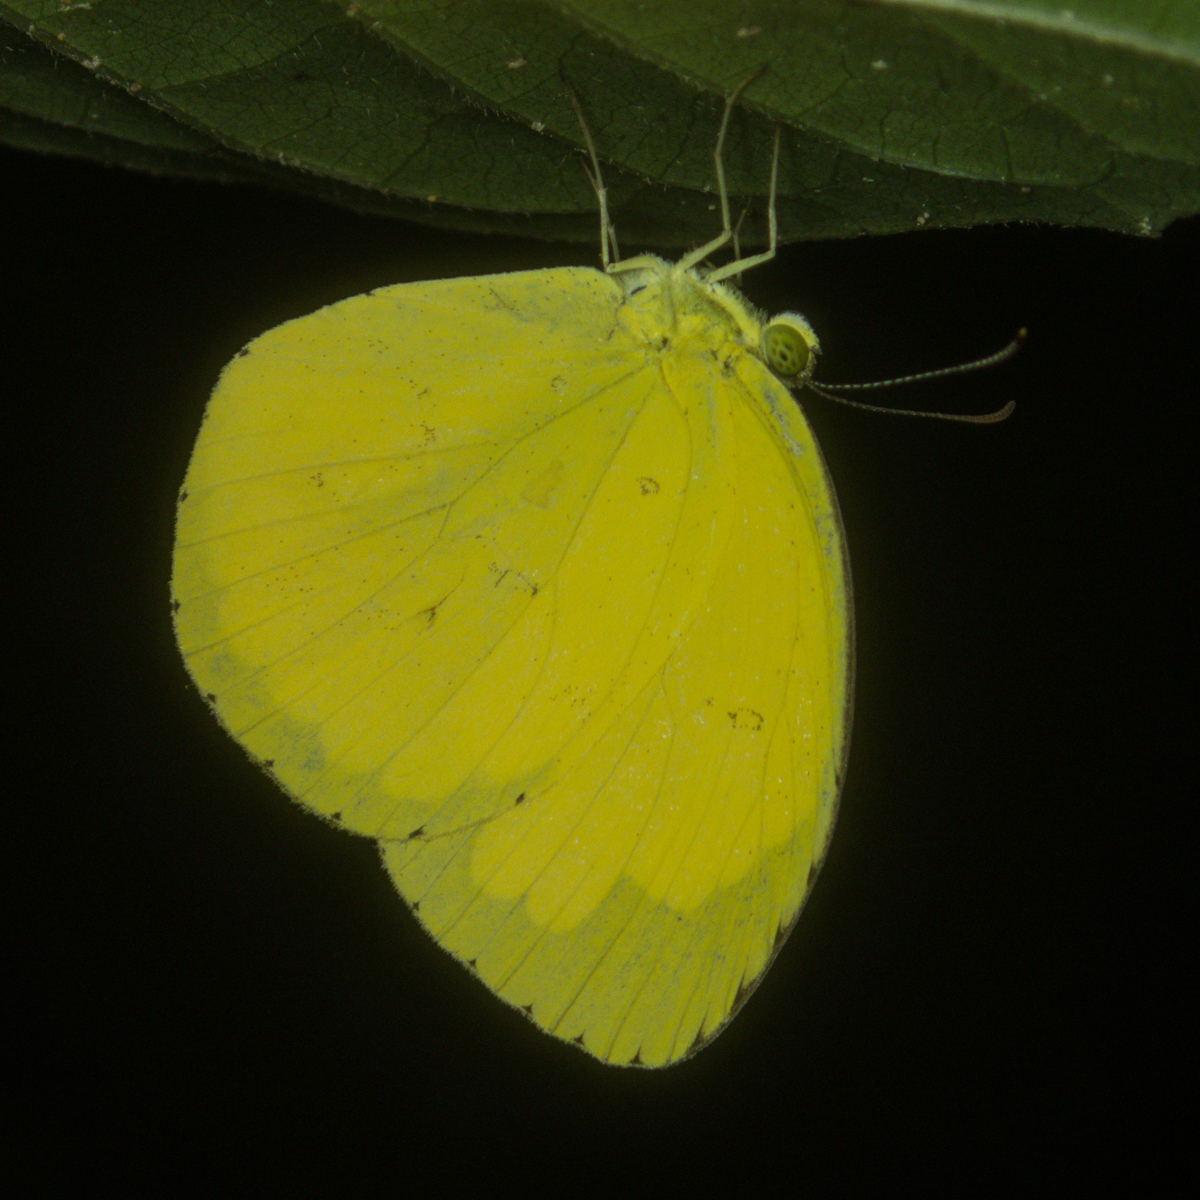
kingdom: Animalia
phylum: Arthropoda
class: Insecta
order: Lepidoptera
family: Pieridae
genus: Eurema
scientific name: Eurema hecabe
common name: Pale grass yellow
